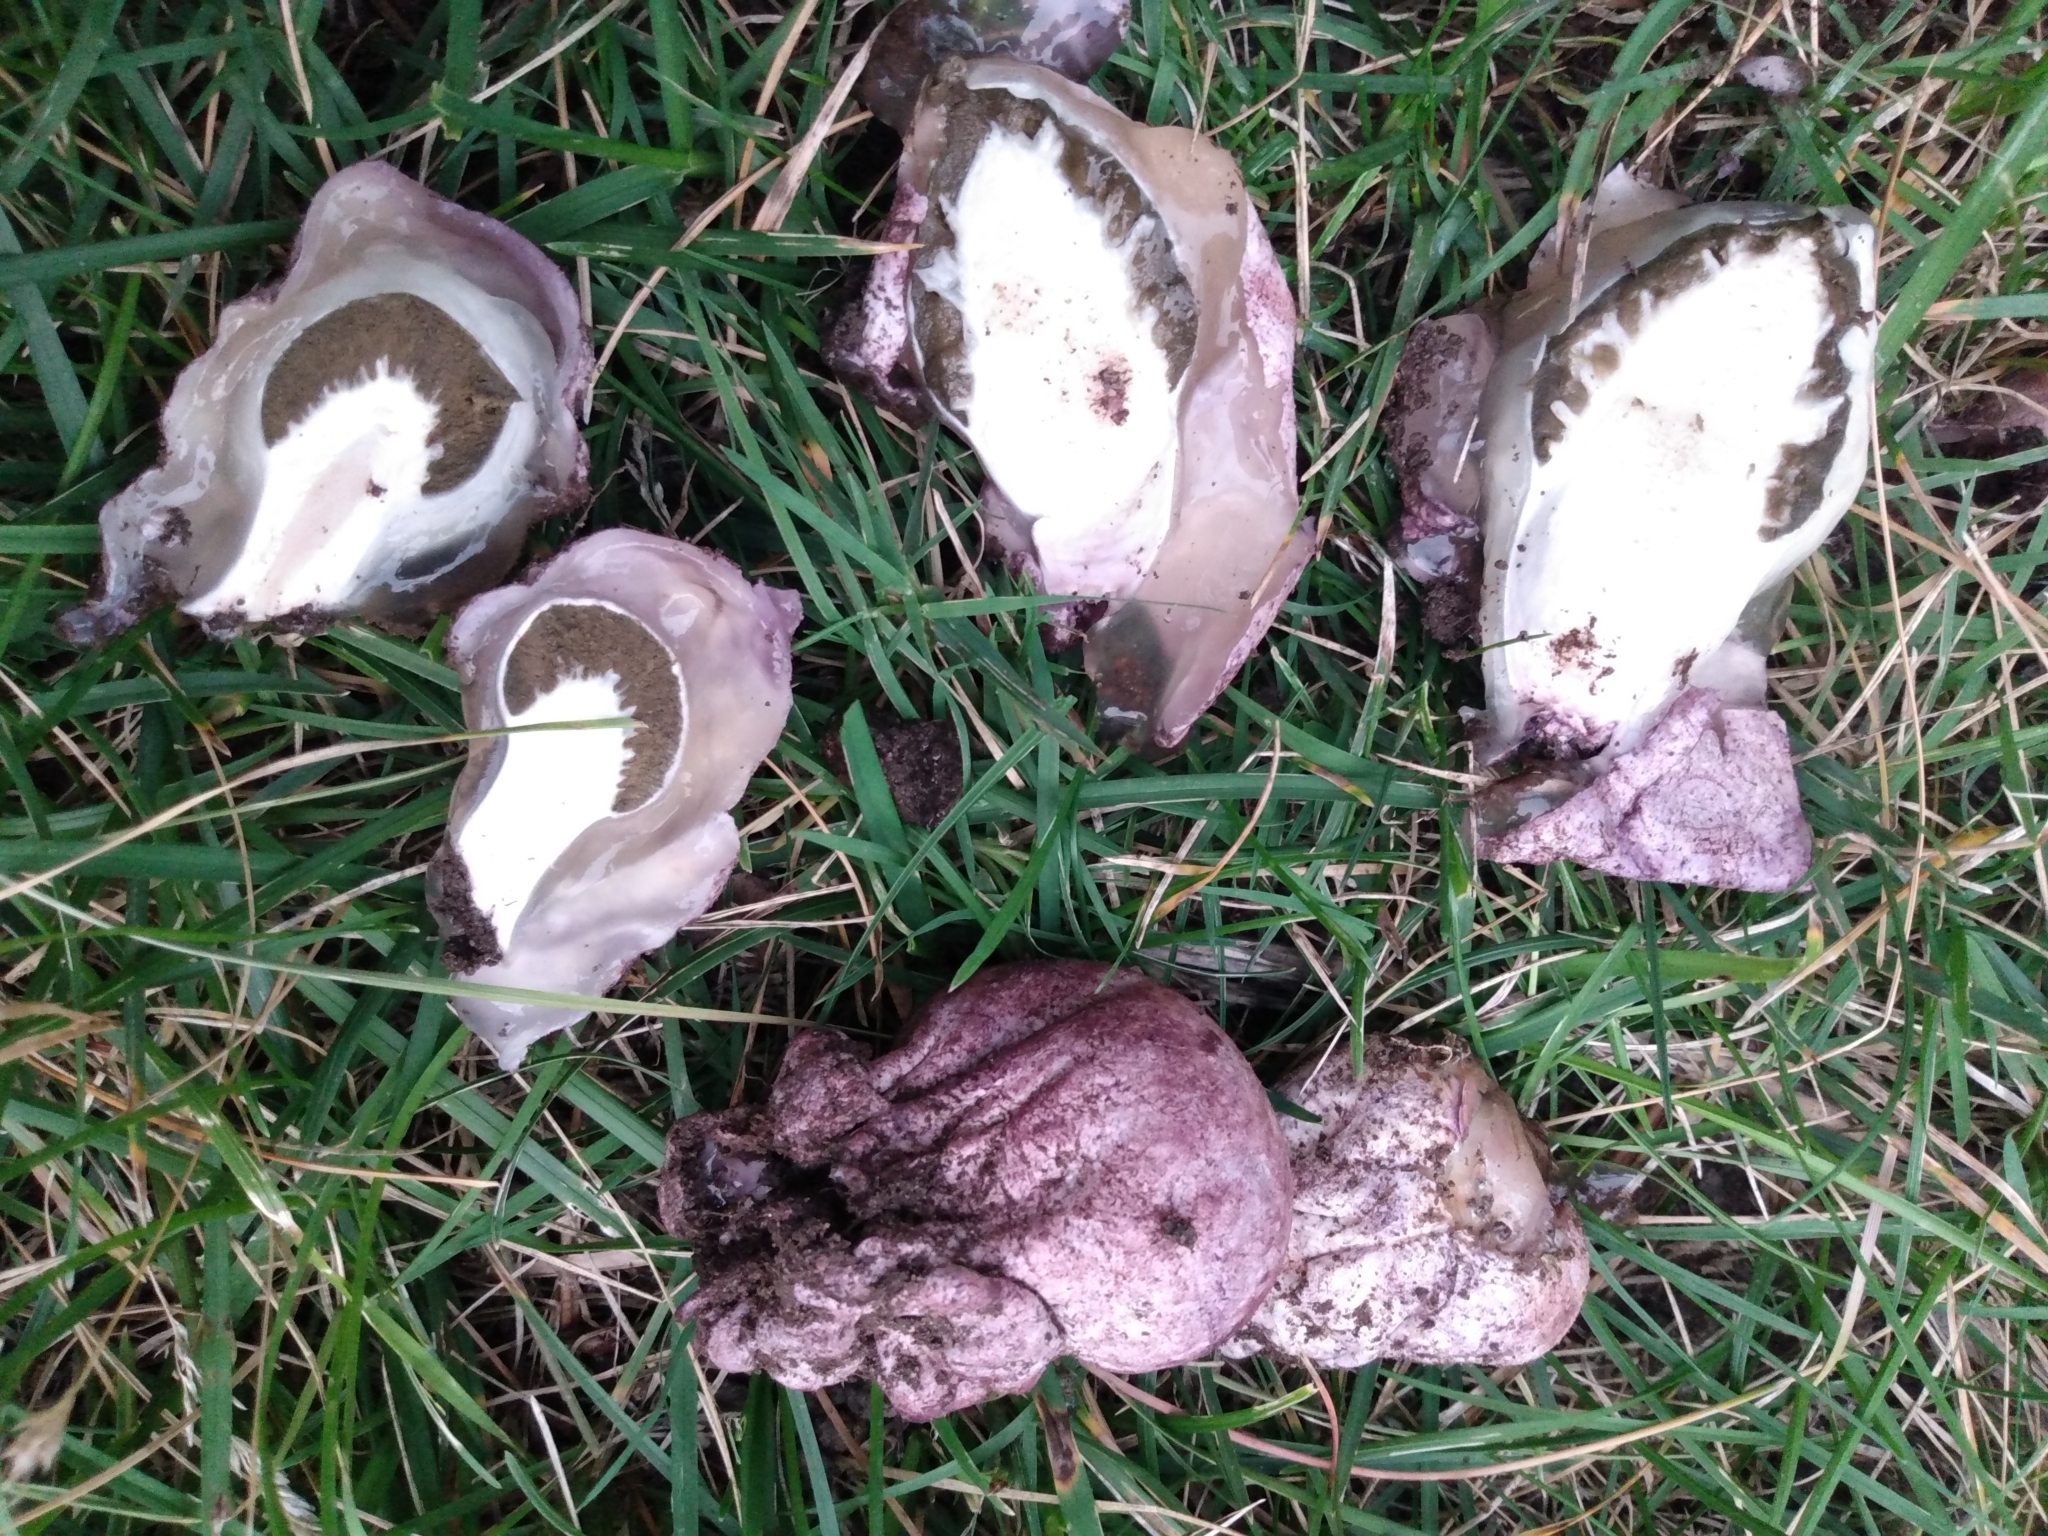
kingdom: Fungi
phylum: Basidiomycota
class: Agaricomycetes
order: Phallales
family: Phallaceae
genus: Phallus
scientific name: Phallus hadriani
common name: Sand stinkhorn
